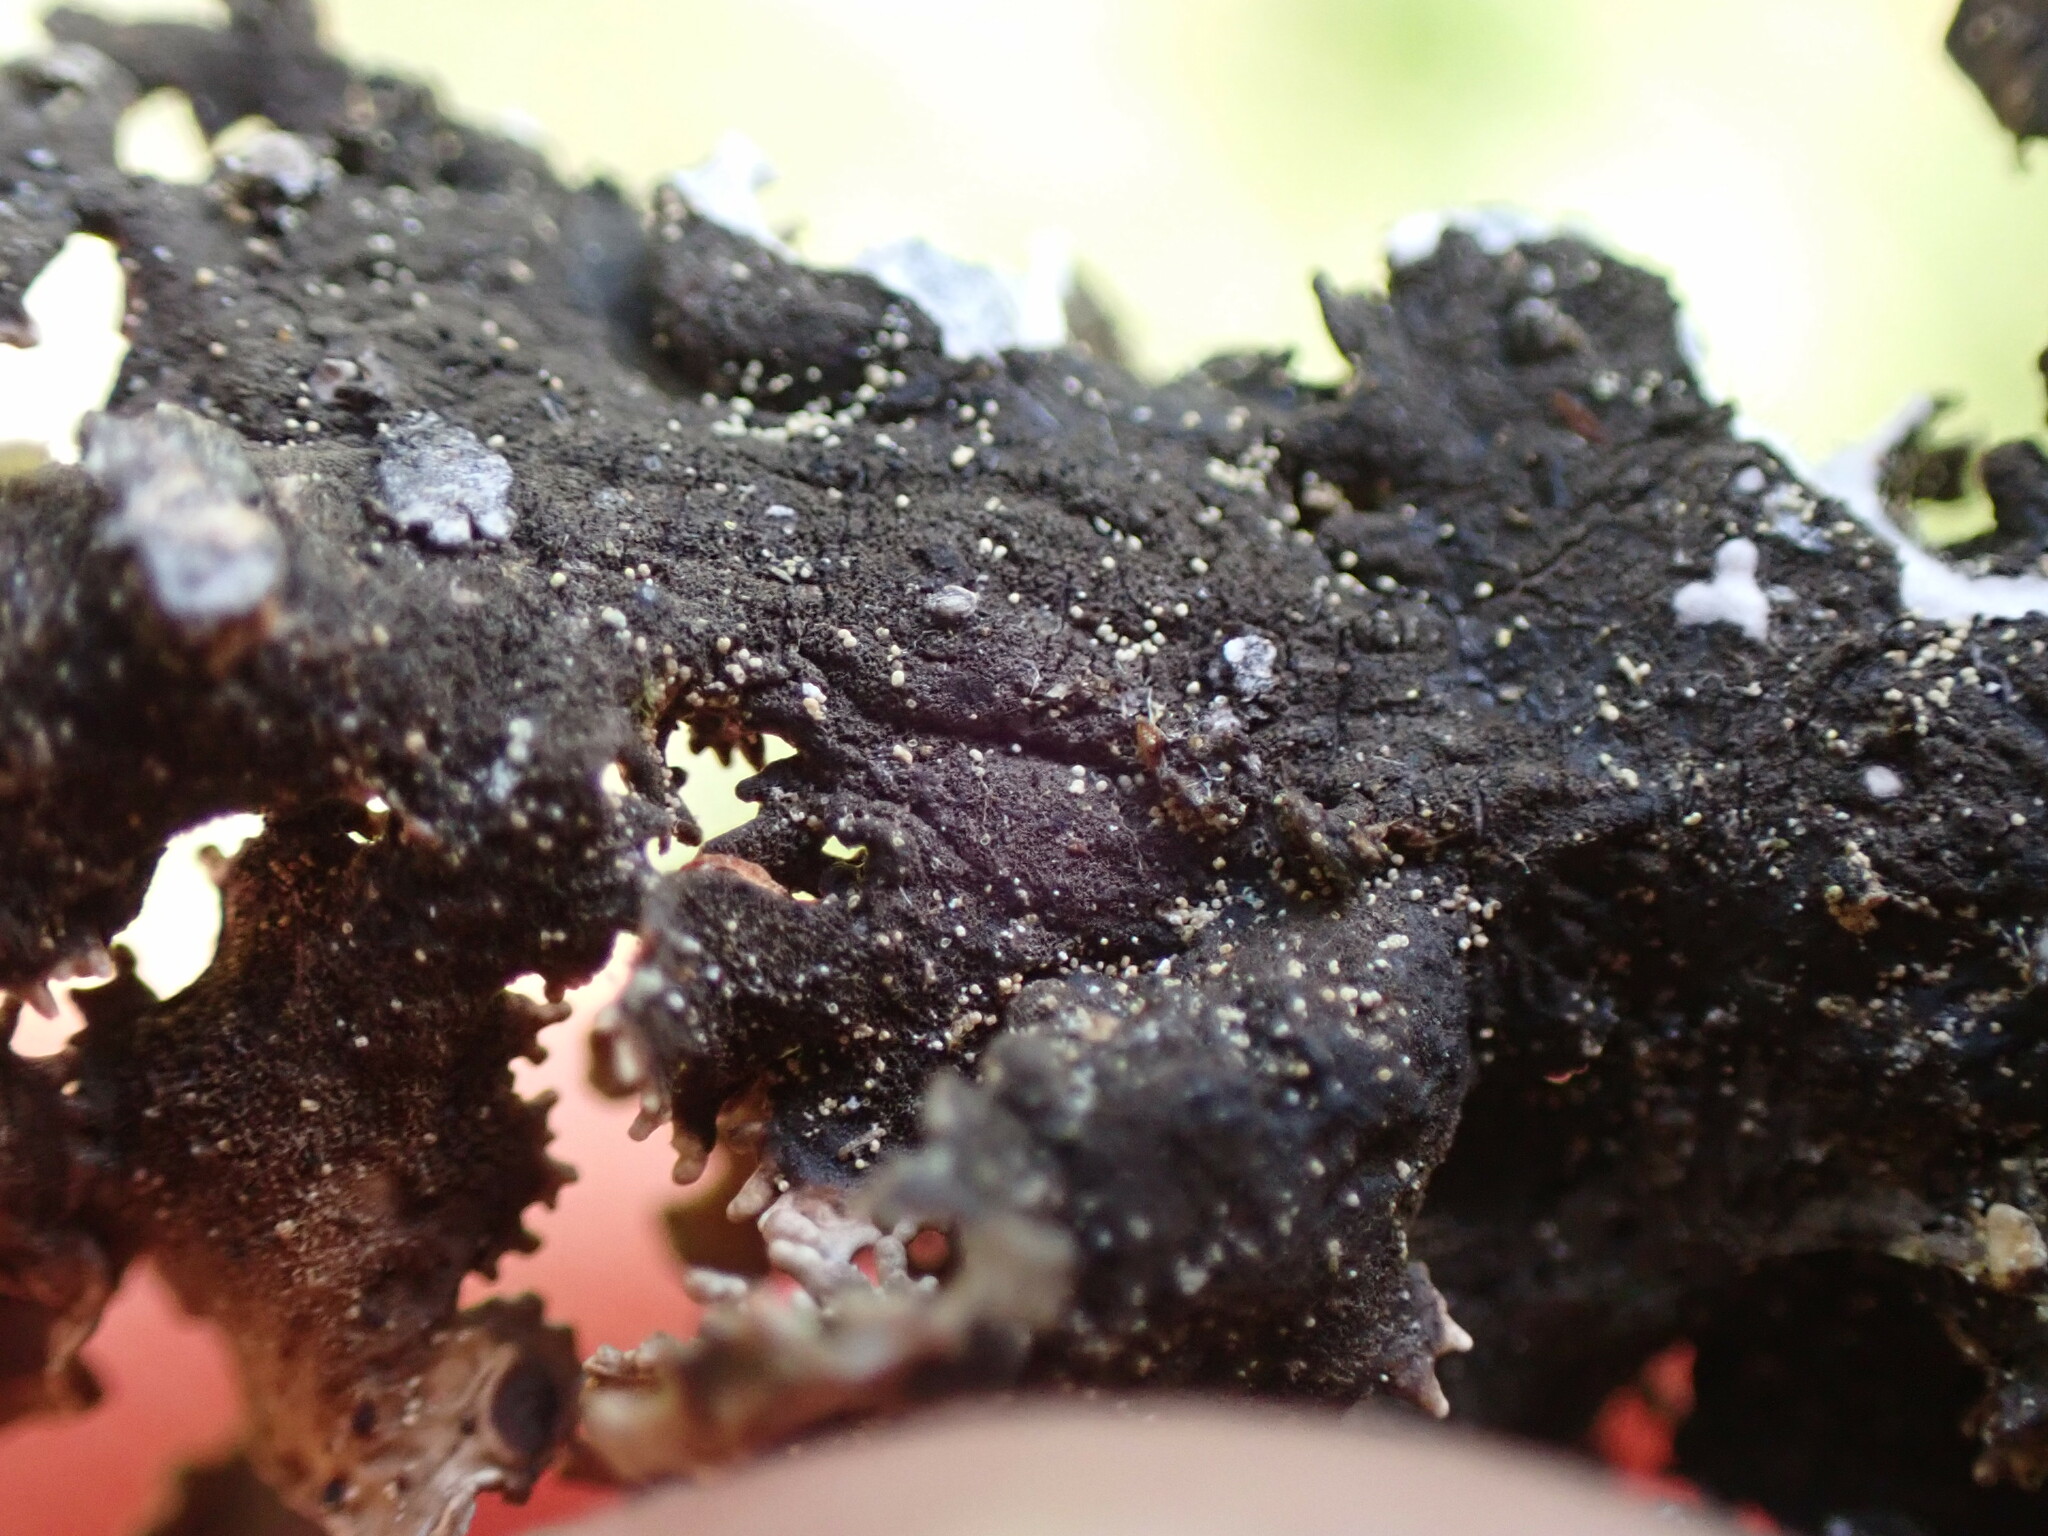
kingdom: Fungi
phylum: Ascomycota
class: Lecanoromycetes
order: Peltigerales
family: Nephromataceae
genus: Nephroma
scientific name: Nephroma helveticum
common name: Fringed kidney lichen
